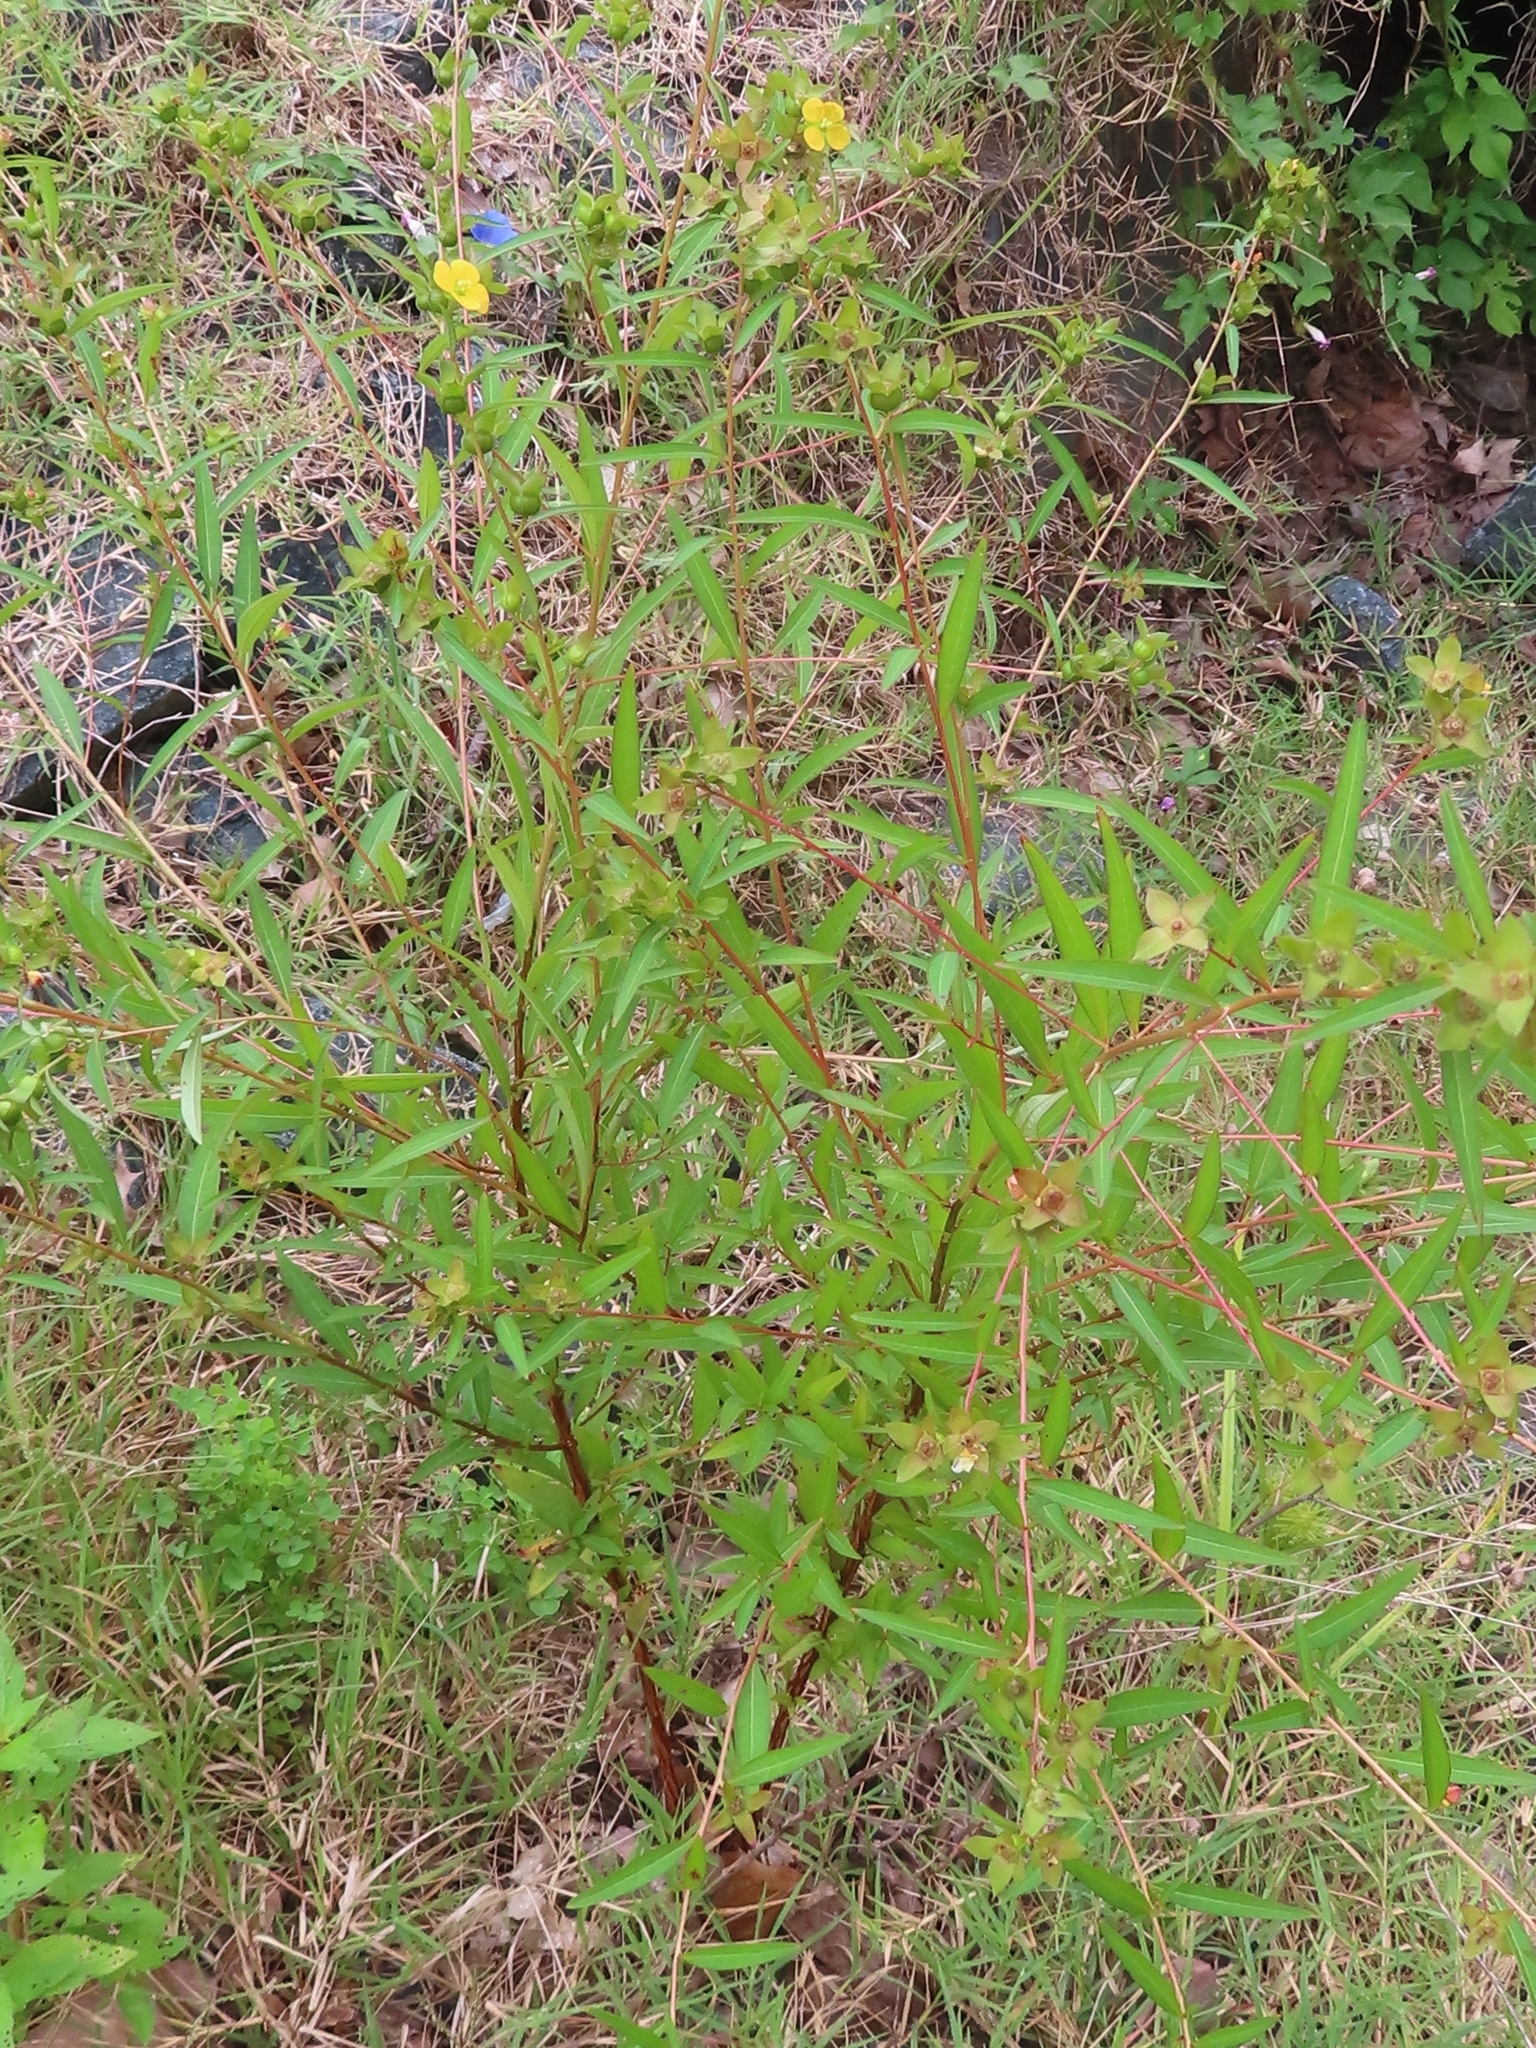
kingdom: Plantae
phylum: Tracheophyta
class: Magnoliopsida
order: Myrtales
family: Onagraceae
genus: Ludwigia
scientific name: Ludwigia alternifolia
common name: Rattlebox
